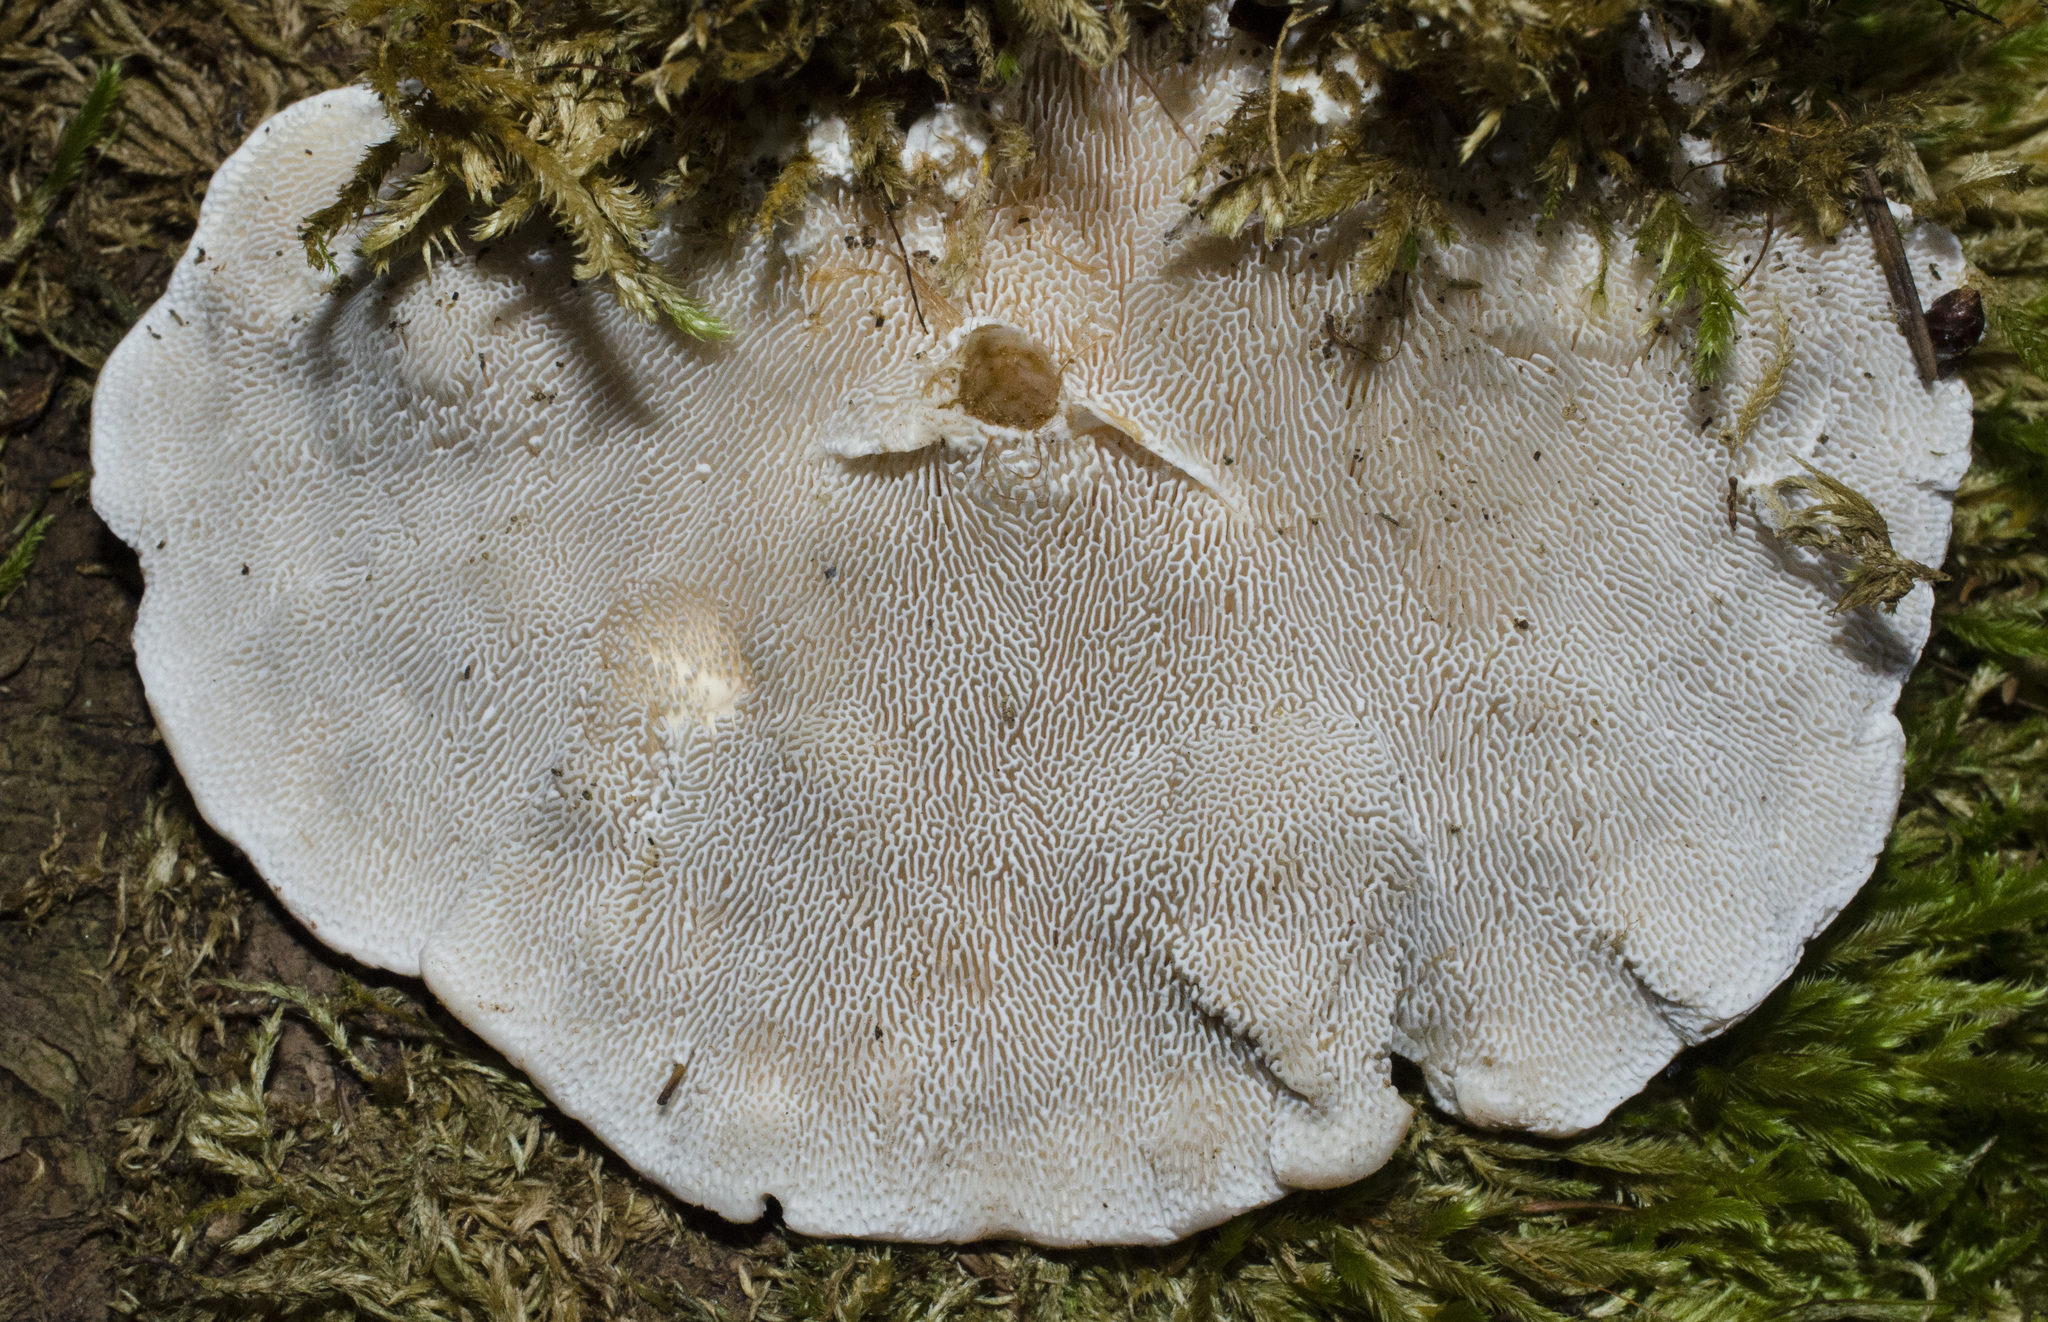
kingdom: Fungi
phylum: Basidiomycota
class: Agaricomycetes
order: Polyporales
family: Polyporaceae
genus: Trametes
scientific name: Trametes gibbosa
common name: Lumpy bracket
